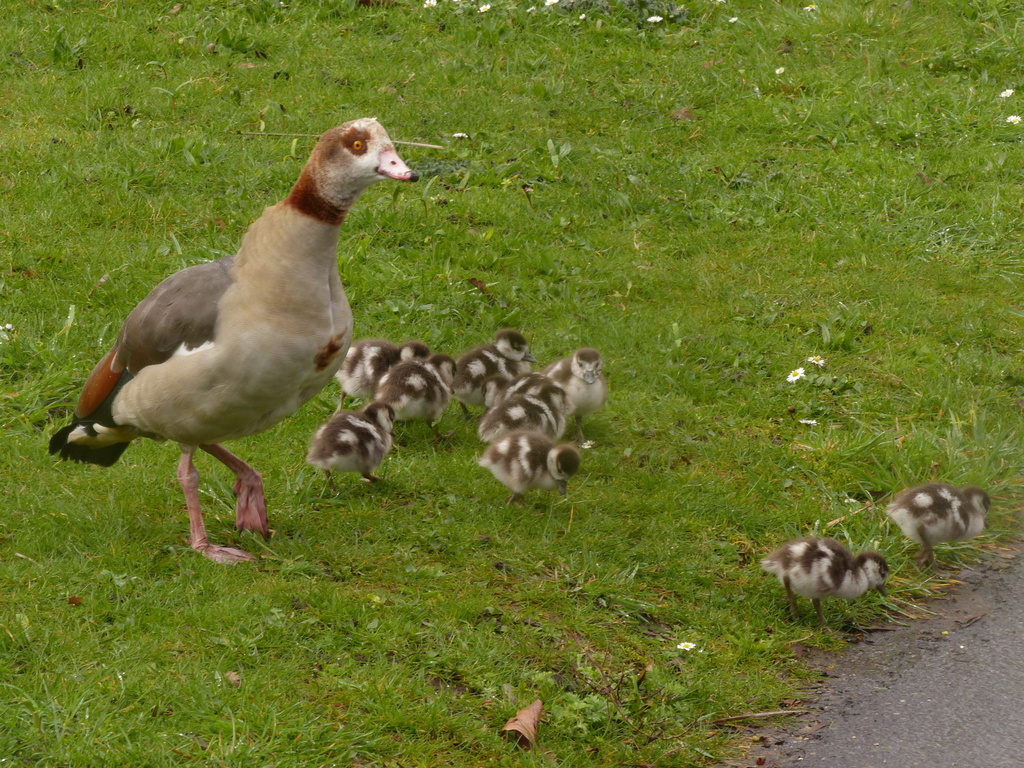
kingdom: Animalia
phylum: Chordata
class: Aves
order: Anseriformes
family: Anatidae
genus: Alopochen
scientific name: Alopochen aegyptiaca
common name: Egyptian goose
